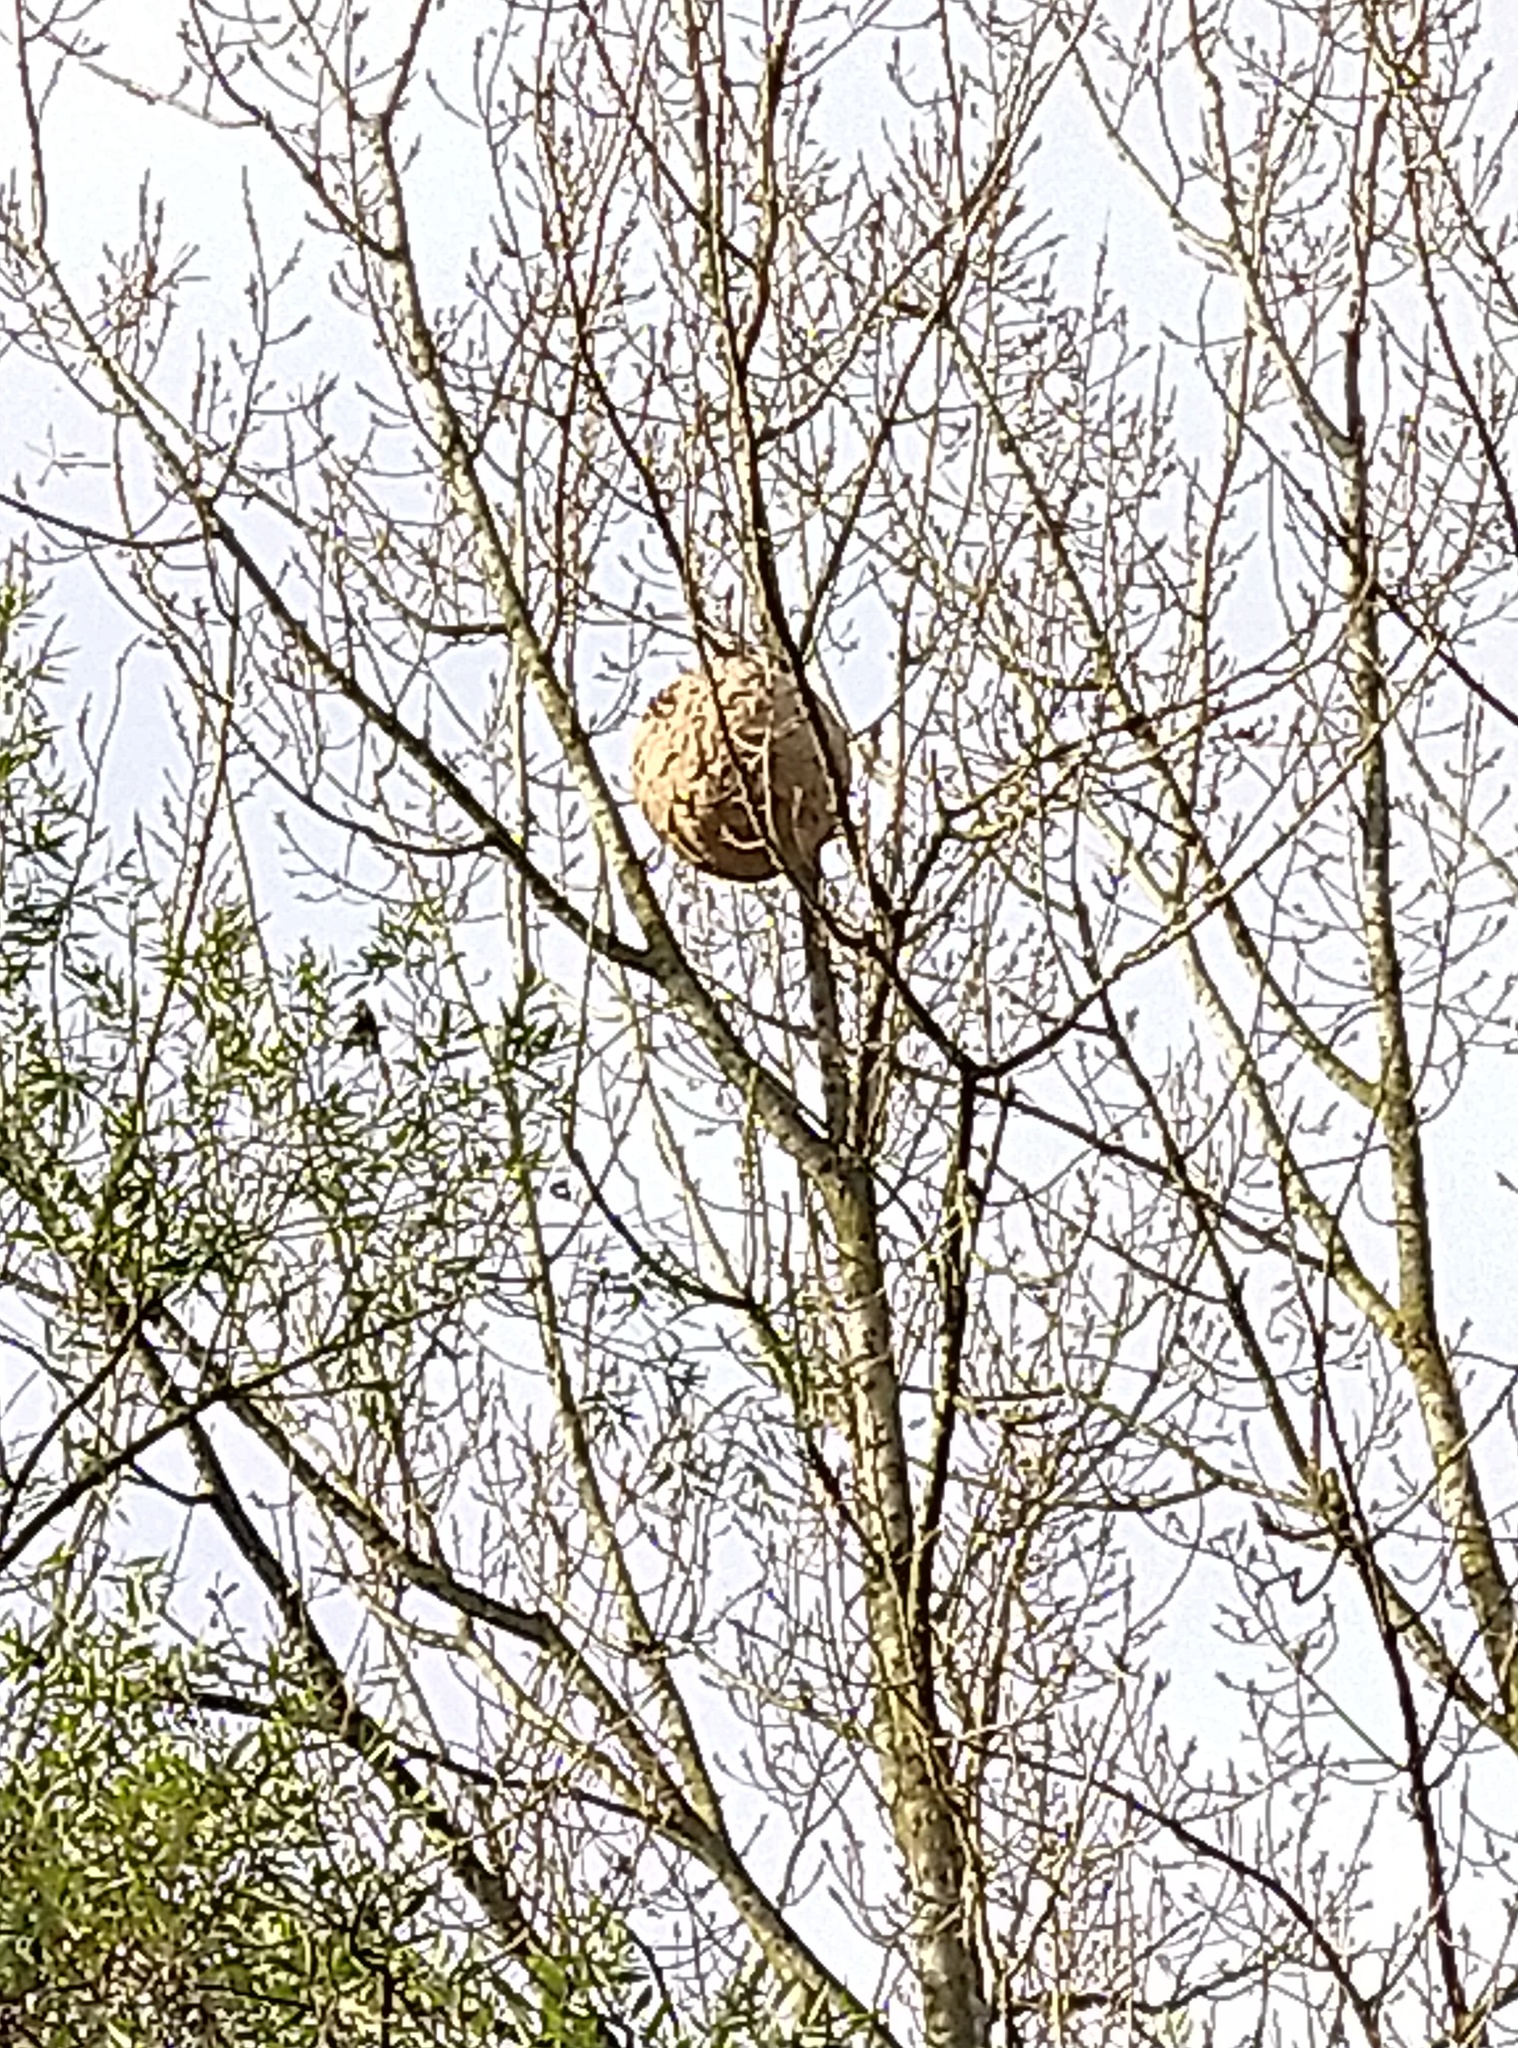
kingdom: Animalia
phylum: Arthropoda
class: Insecta
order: Hymenoptera
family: Vespidae
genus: Vespa
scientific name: Vespa velutina
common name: Asian hornet
